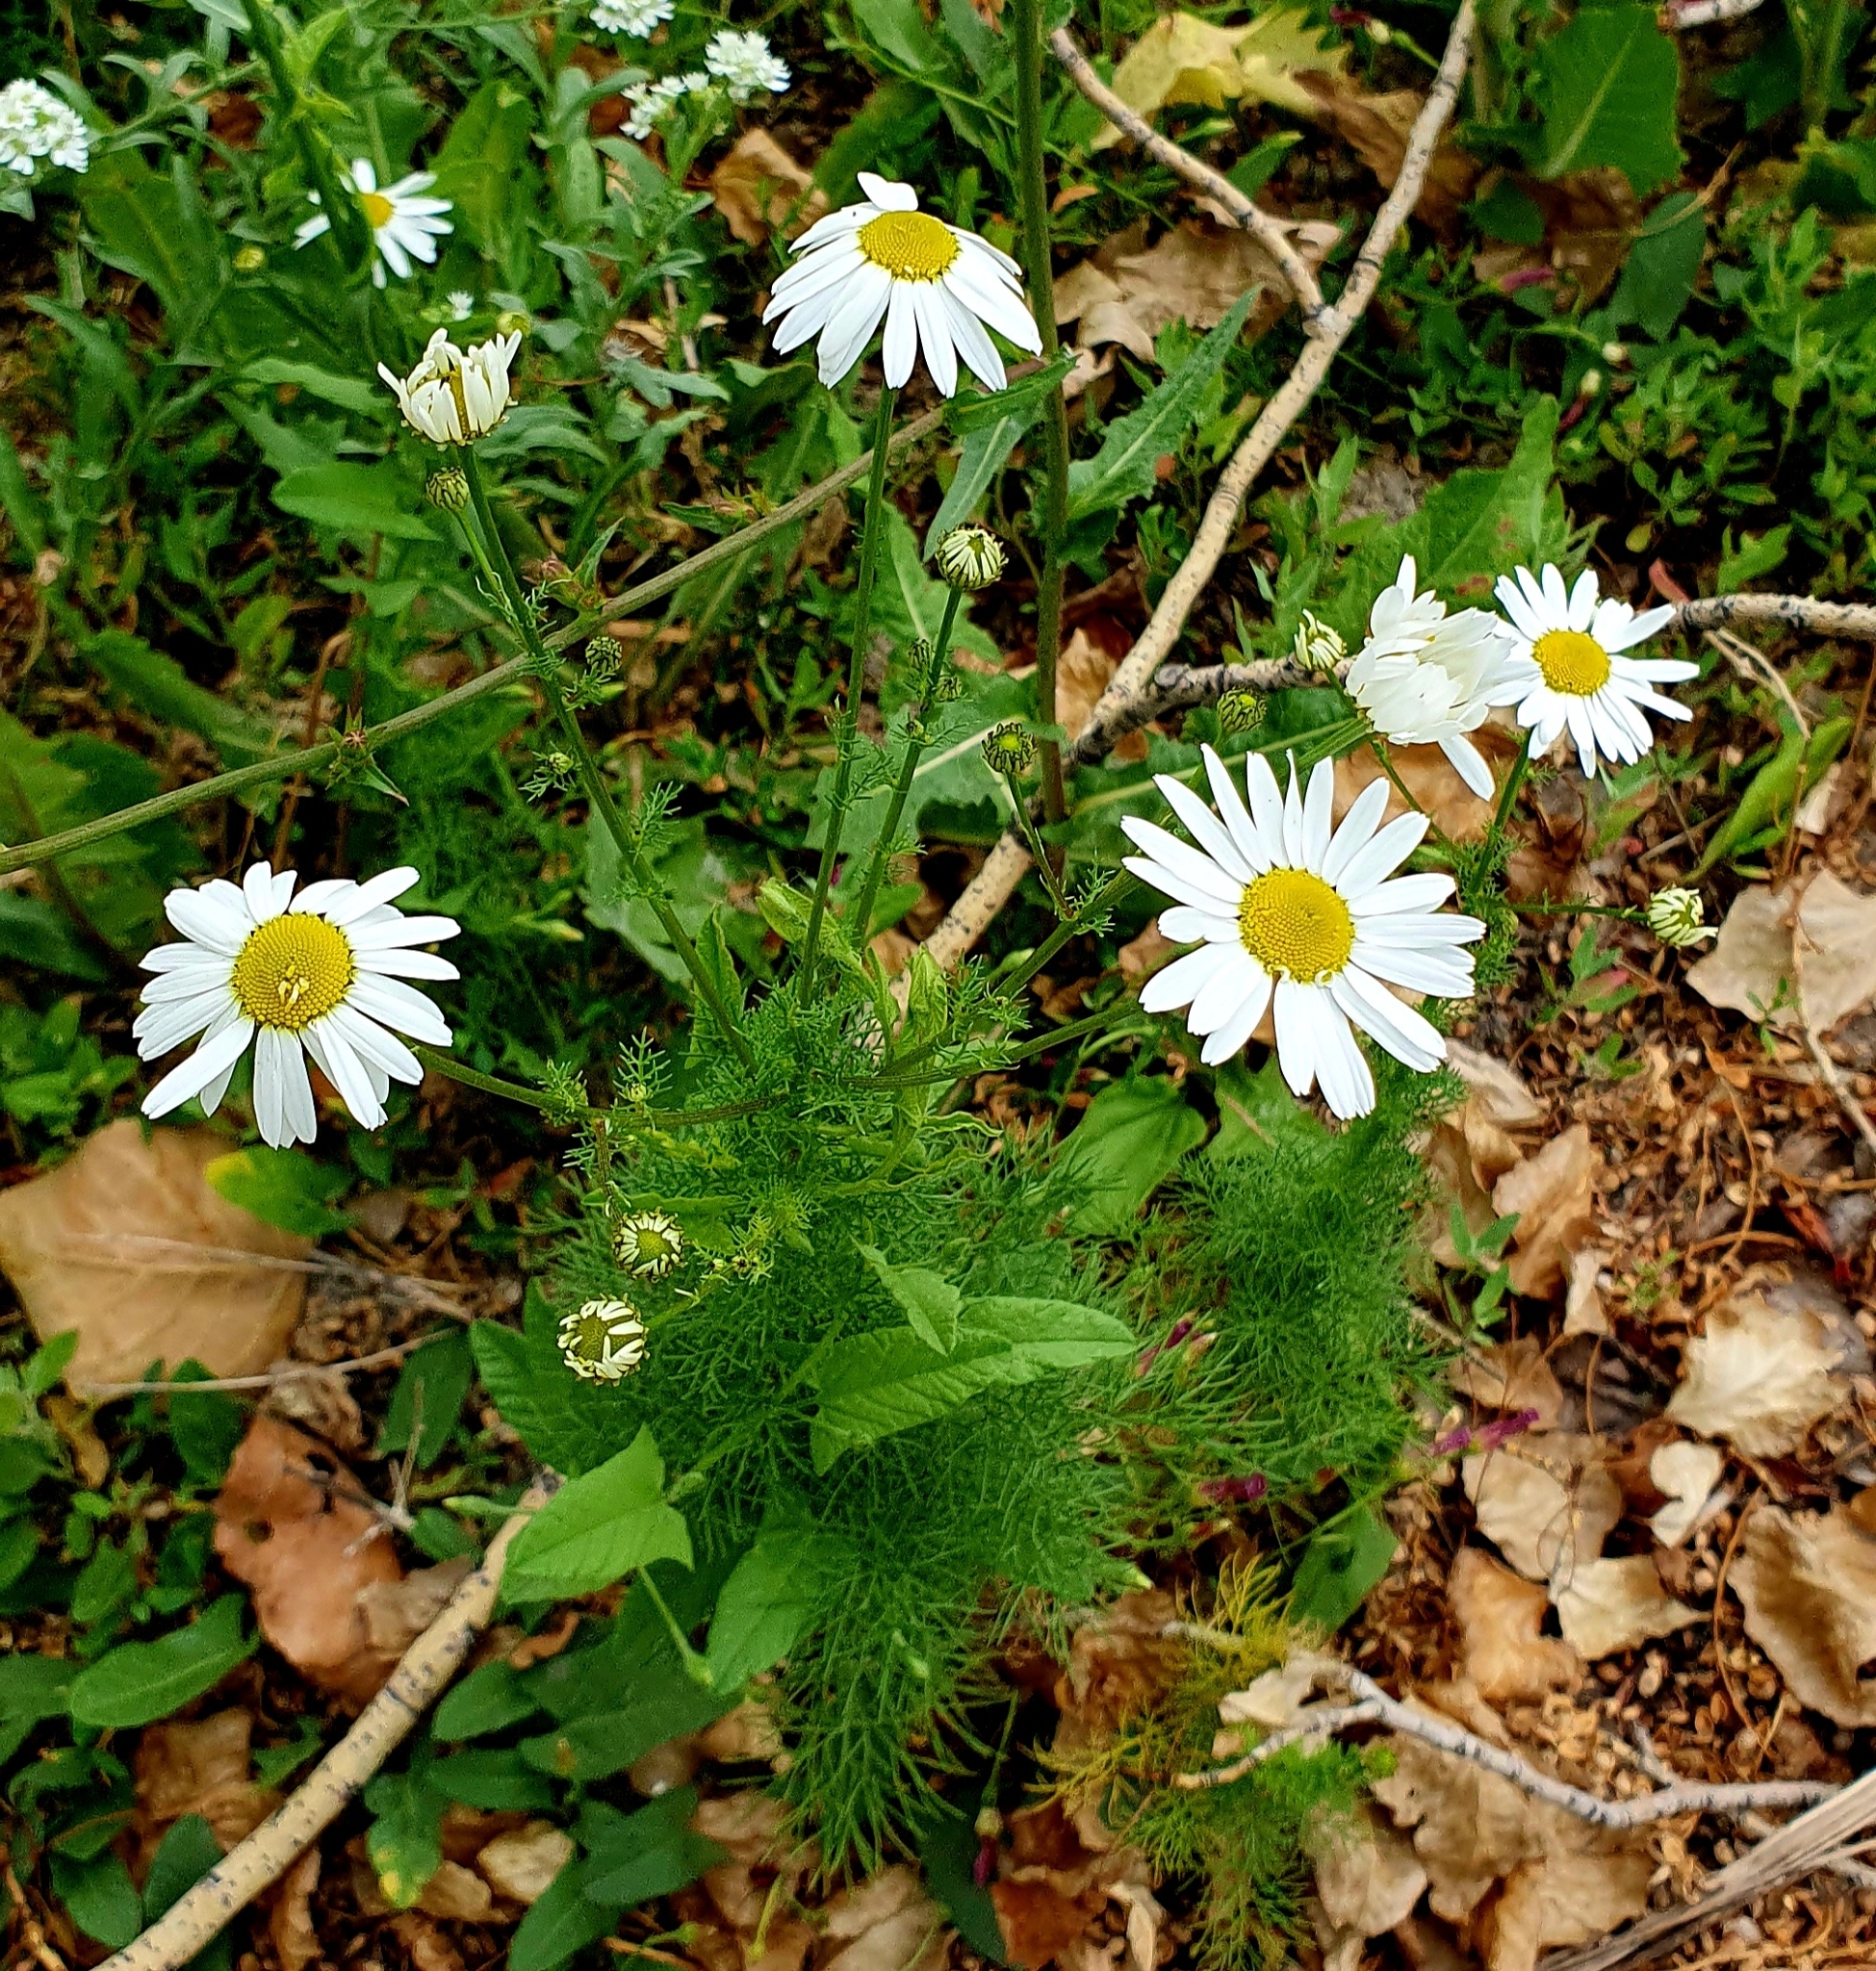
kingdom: Plantae
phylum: Tracheophyta
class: Magnoliopsida
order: Asterales
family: Asteraceae
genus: Tripleurospermum
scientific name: Tripleurospermum inodorum
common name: Scentless mayweed
